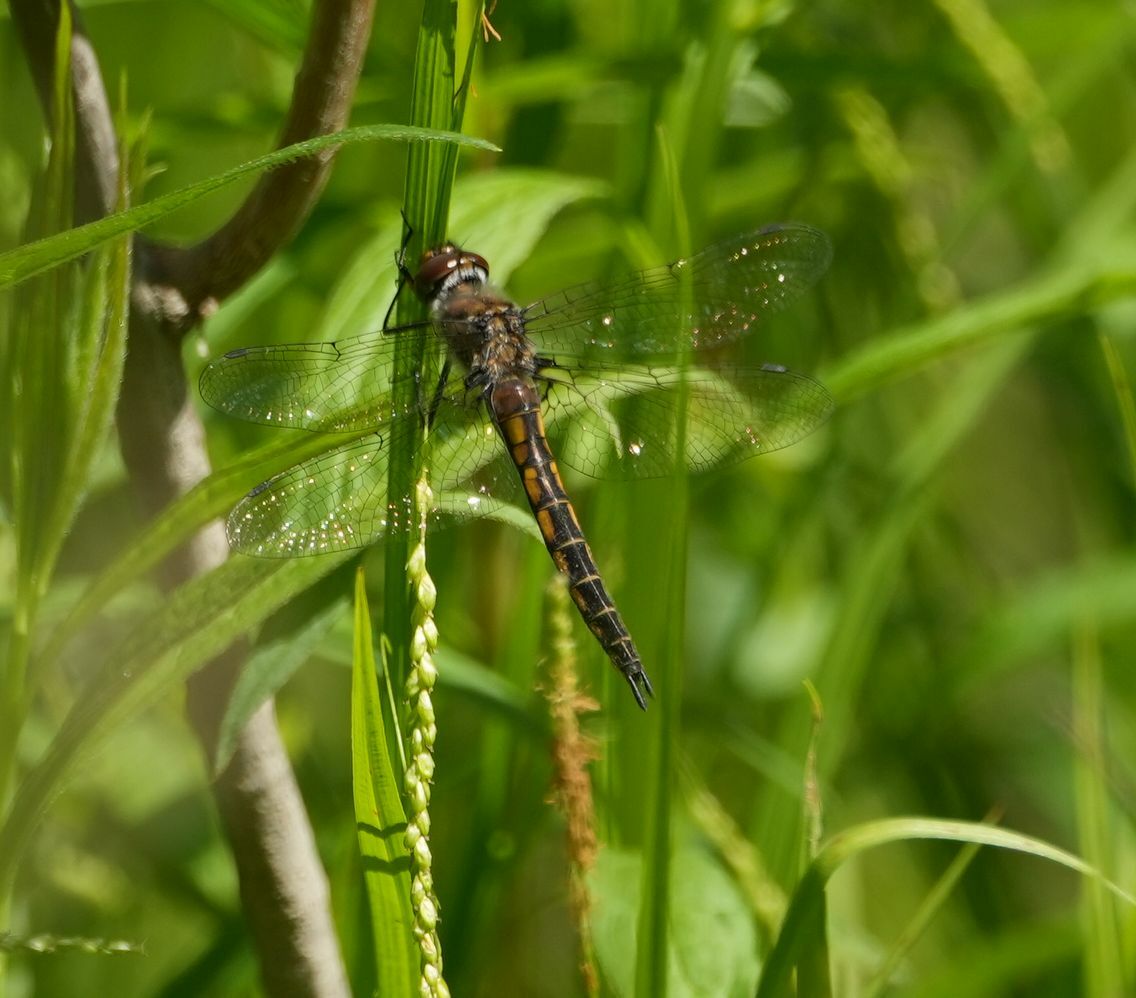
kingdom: Animalia
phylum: Arthropoda
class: Insecta
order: Odonata
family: Corduliidae
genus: Epitheca
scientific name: Epitheca spinigera
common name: Spiny baskettail
